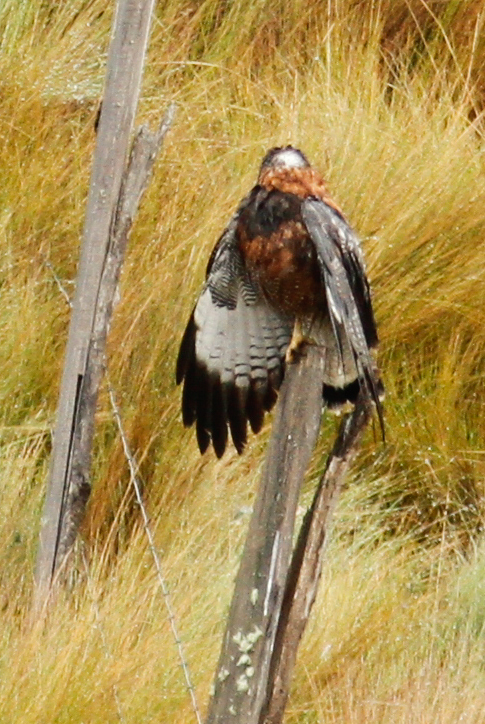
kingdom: Animalia
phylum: Chordata
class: Aves
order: Accipitriformes
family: Accipitridae
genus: Buteo
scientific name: Buteo polyosoma
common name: Variable hawk
